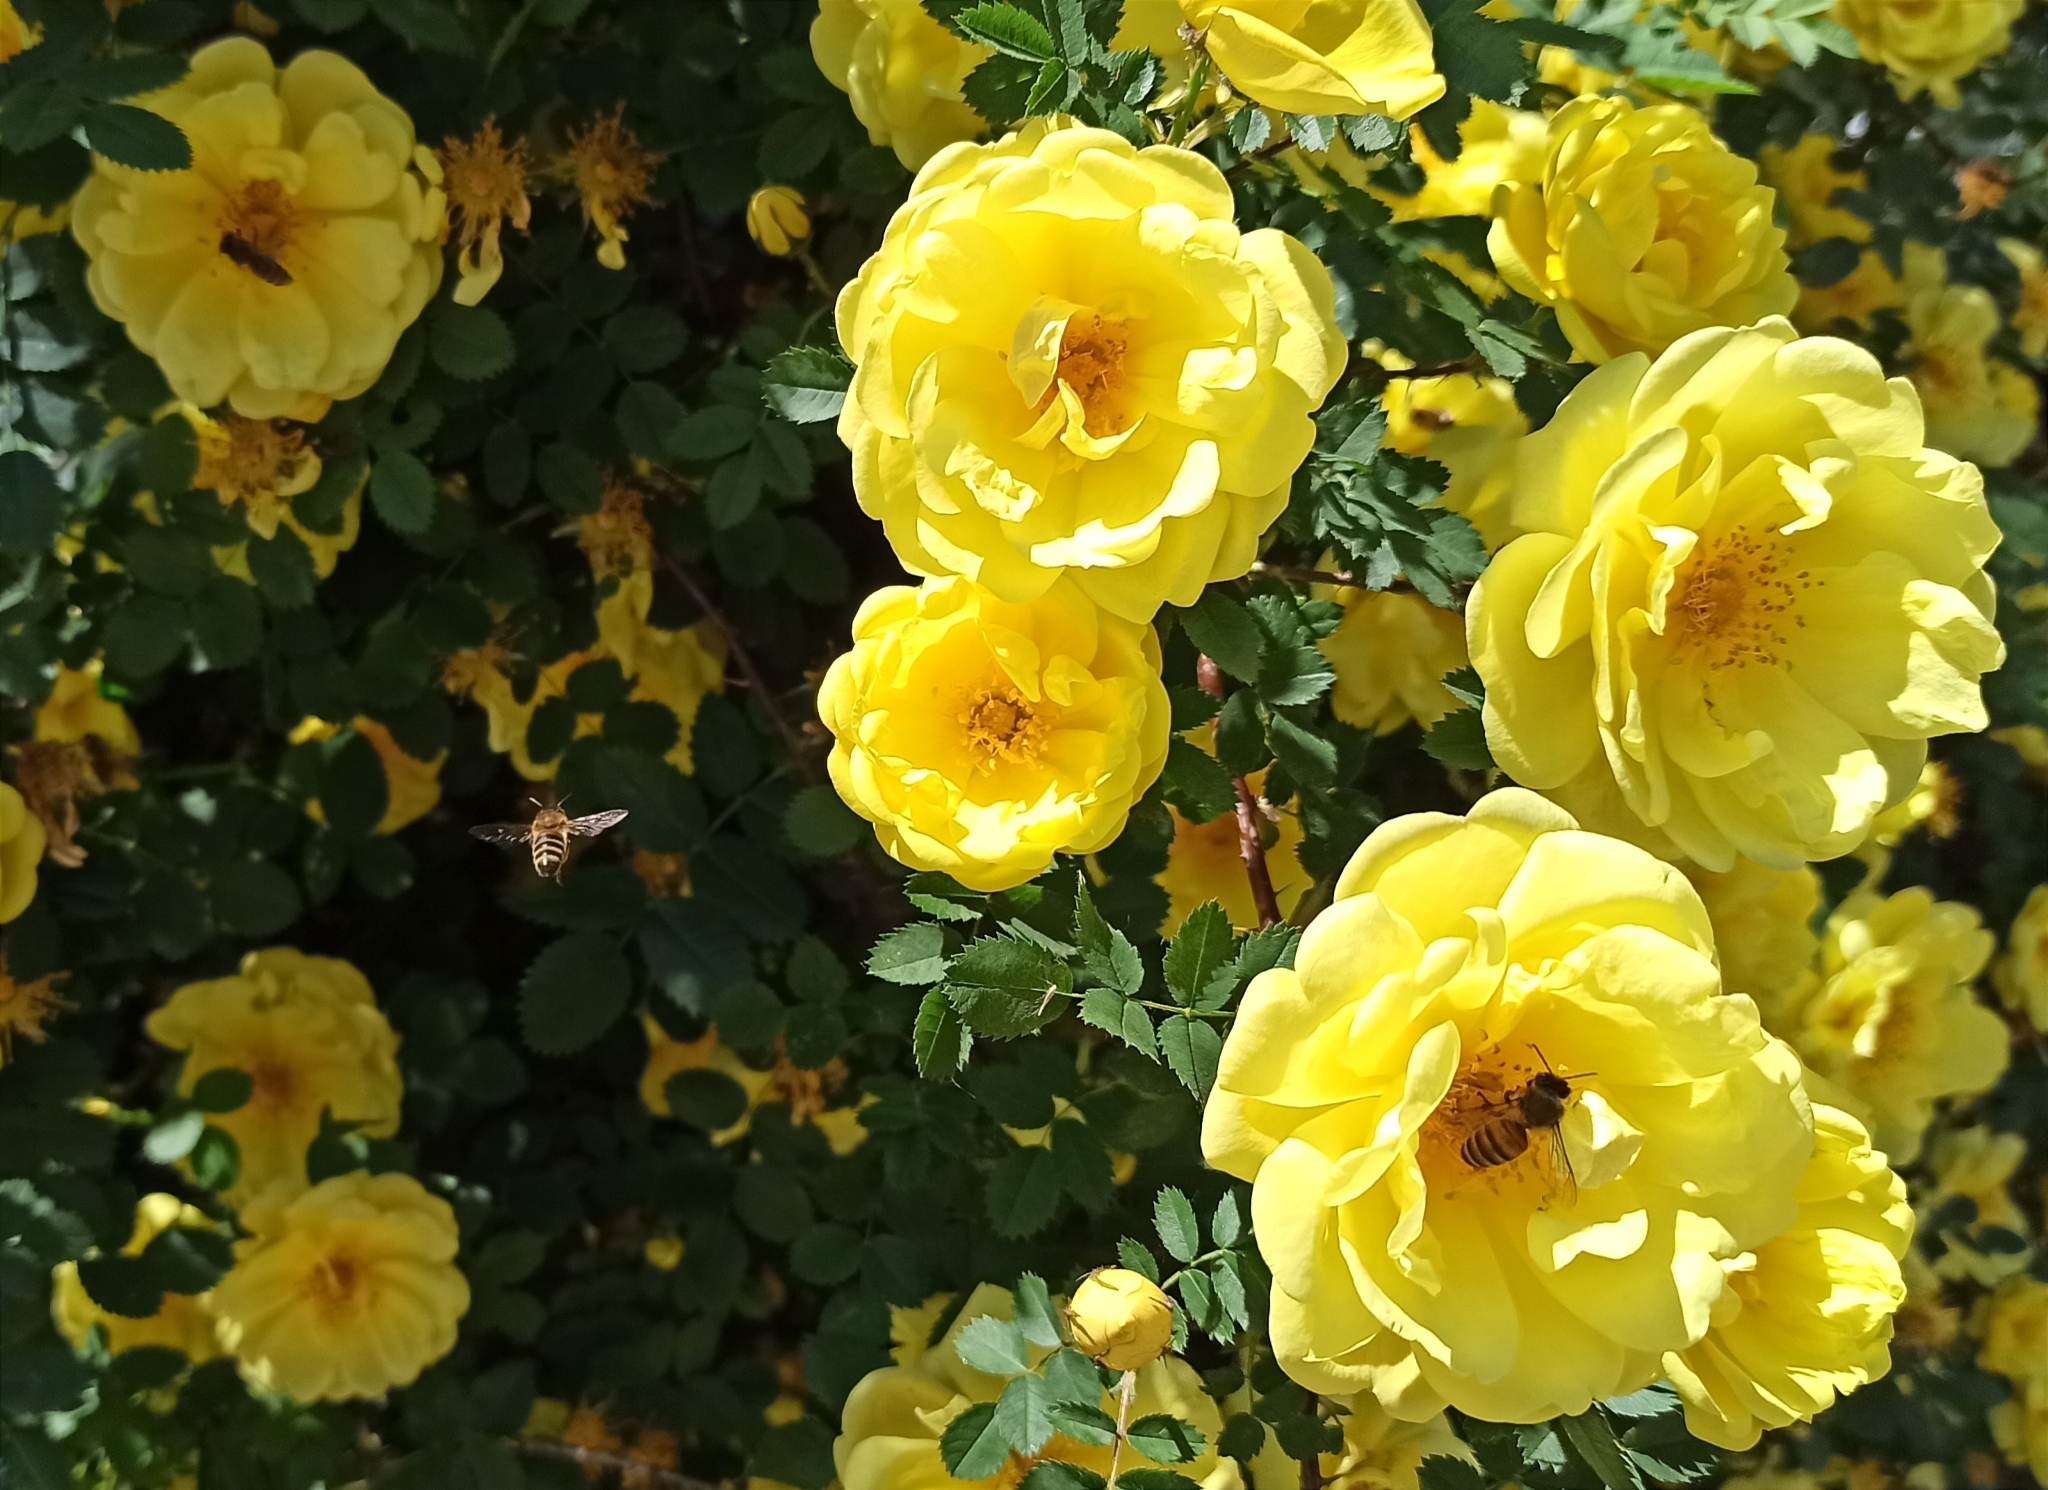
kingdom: Animalia
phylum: Arthropoda
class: Insecta
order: Hymenoptera
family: Apidae
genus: Apis
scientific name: Apis mellifera
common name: Honey bee
